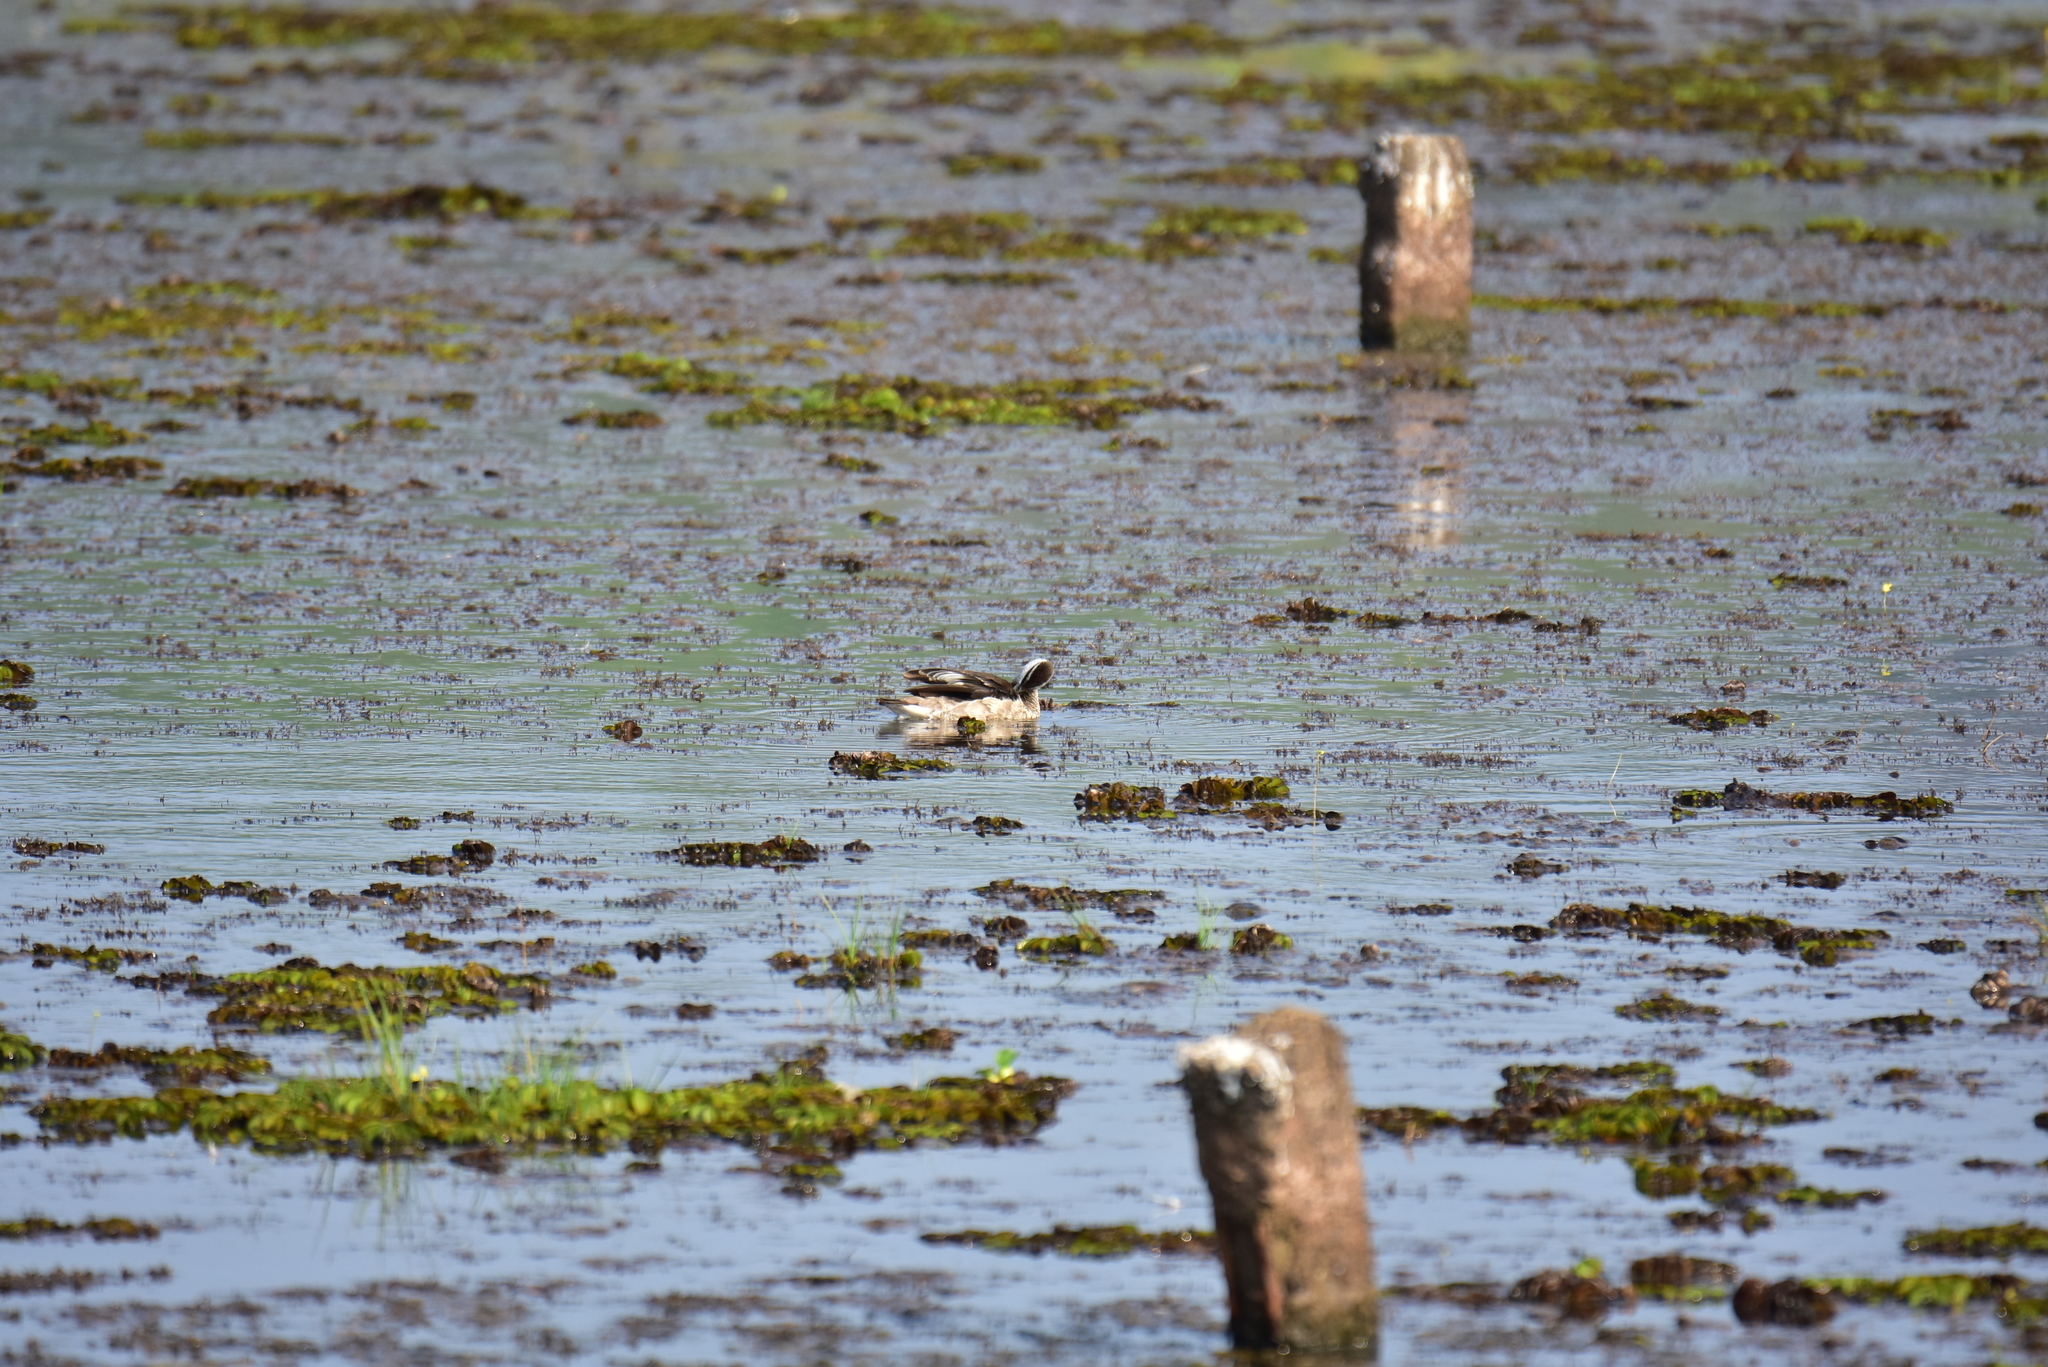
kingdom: Animalia
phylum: Chordata
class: Aves
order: Anseriformes
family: Anatidae
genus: Nettapus
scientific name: Nettapus coromandelianus
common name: Cotton pygmy-goose
